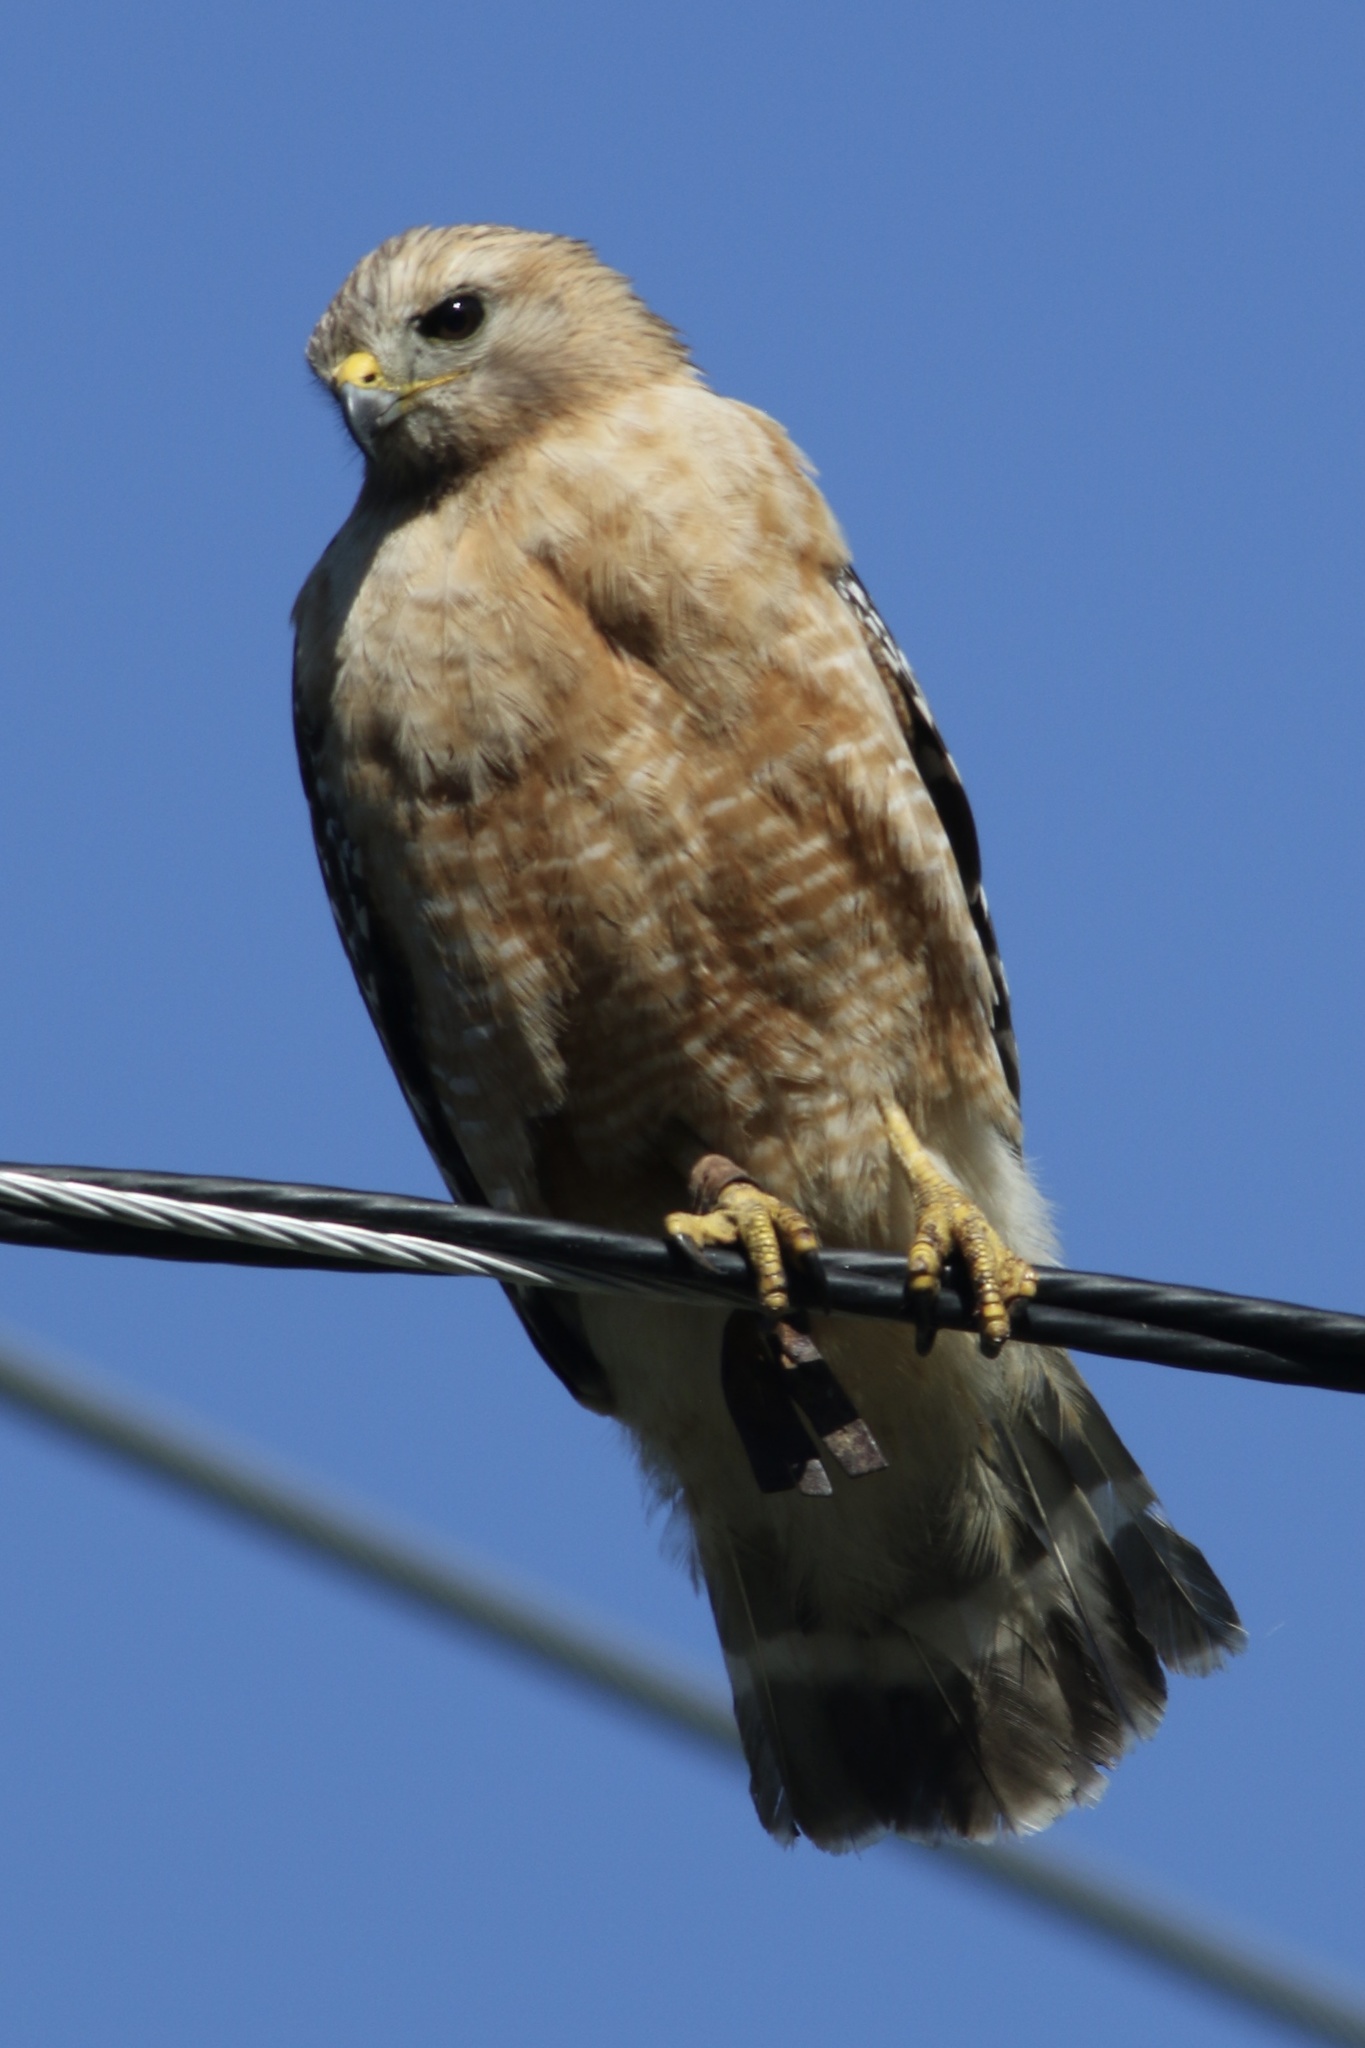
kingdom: Animalia
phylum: Chordata
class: Aves
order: Accipitriformes
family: Accipitridae
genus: Buteo
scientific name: Buteo lineatus
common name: Red-shouldered hawk
